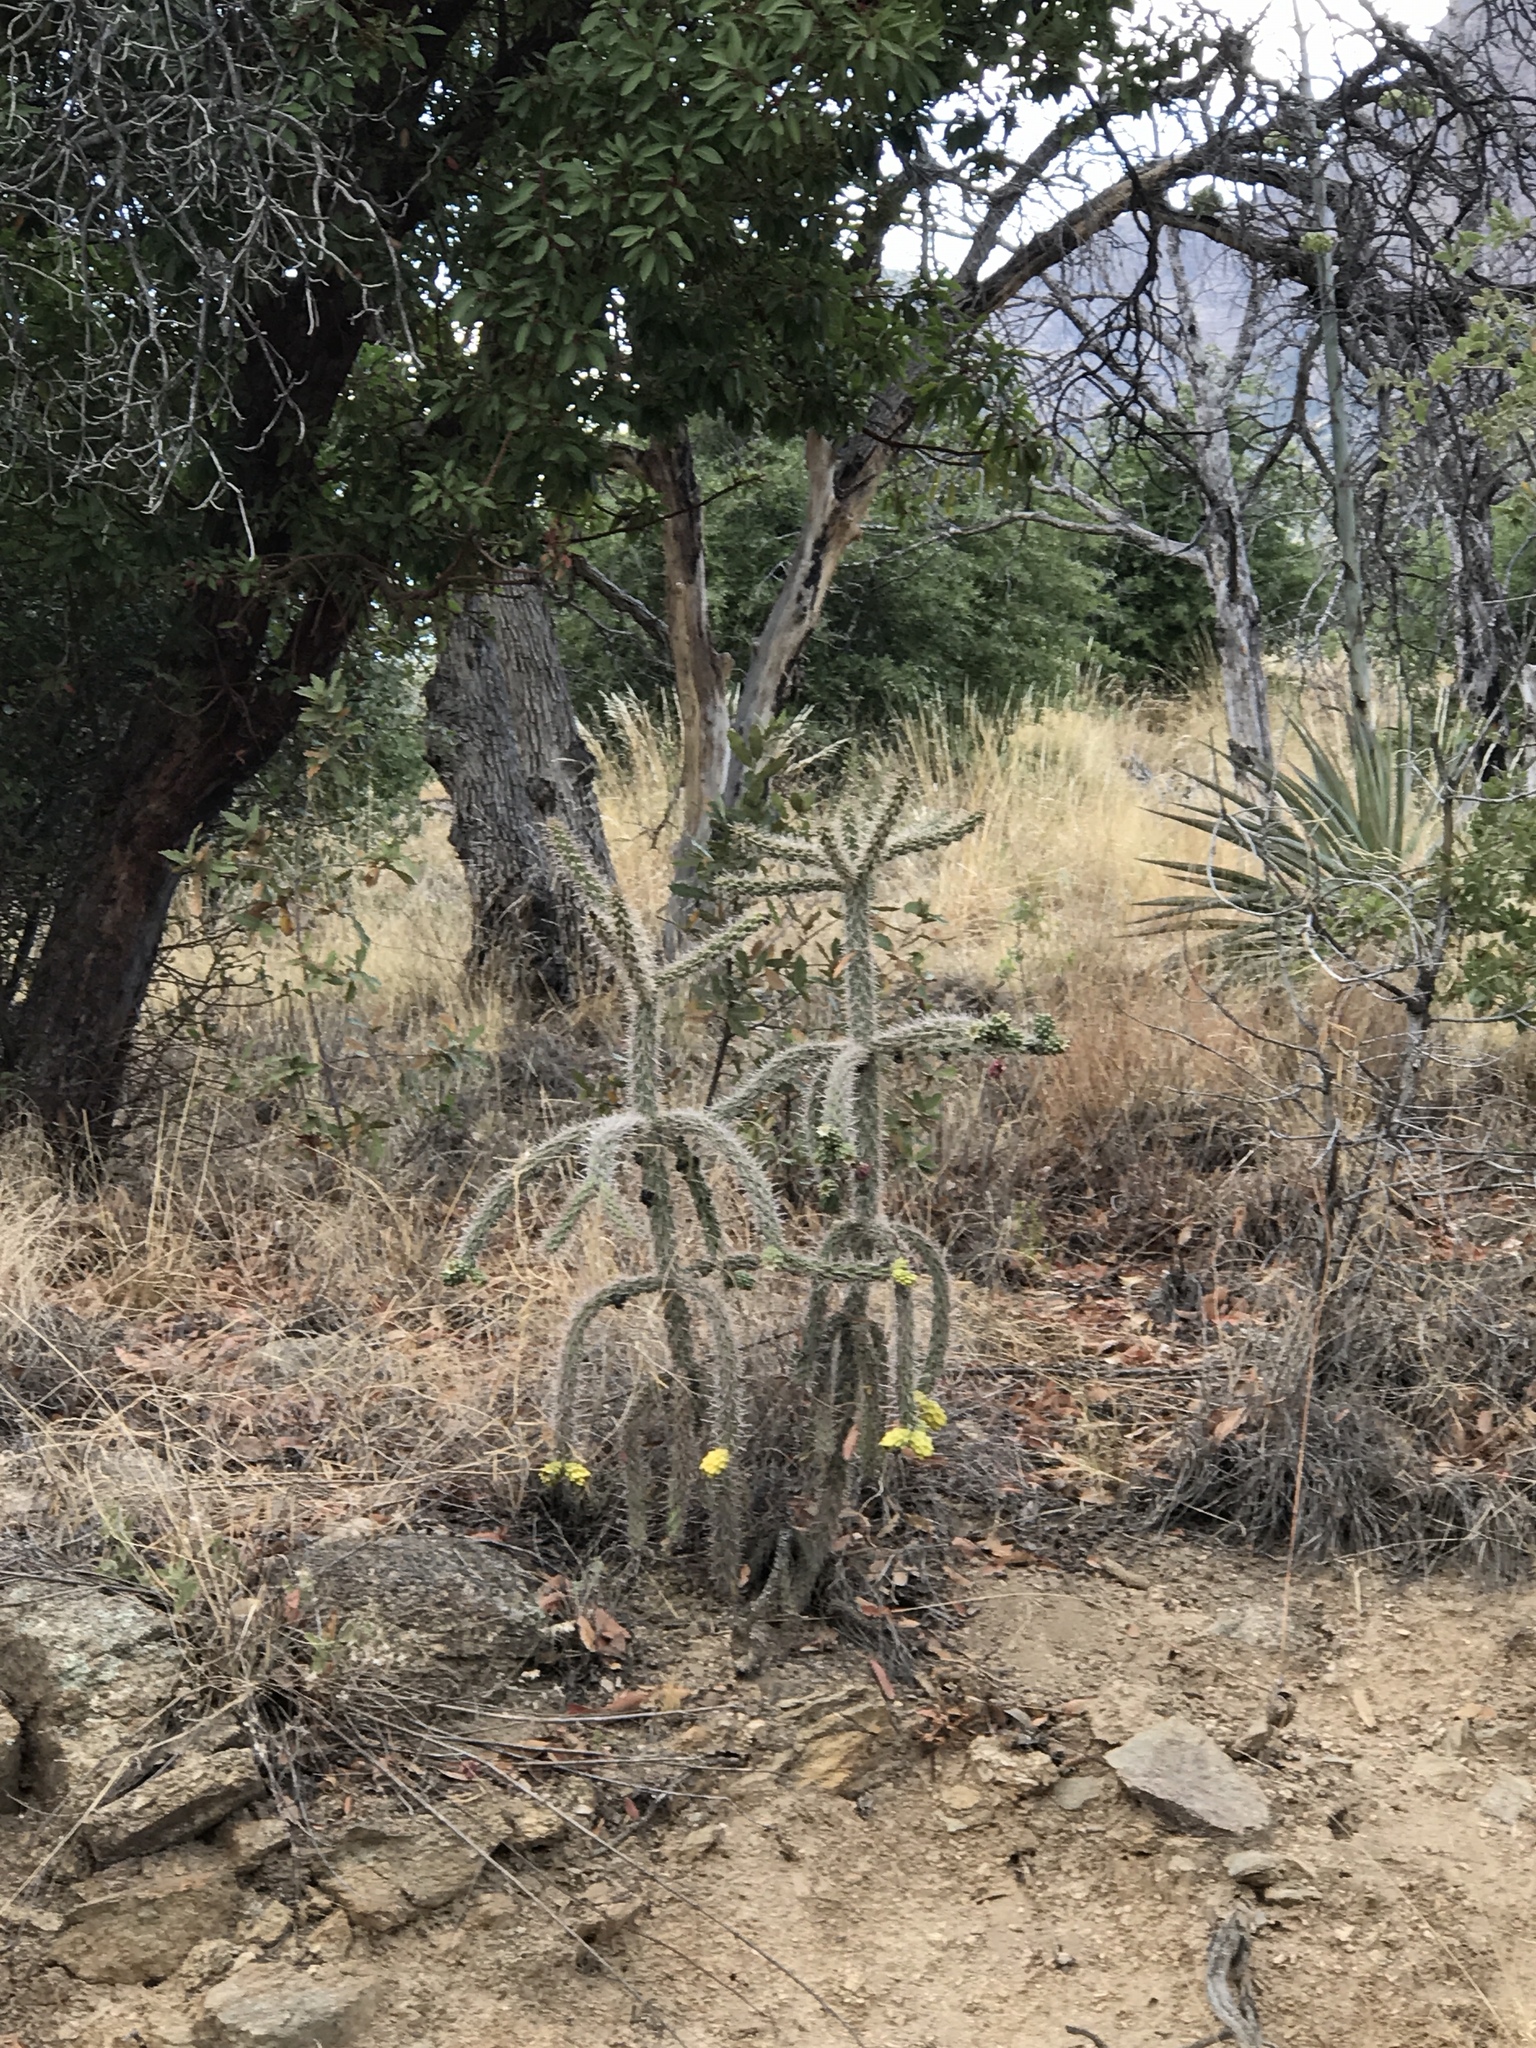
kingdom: Plantae
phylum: Tracheophyta
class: Magnoliopsida
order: Caryophyllales
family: Cactaceae
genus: Cylindropuntia
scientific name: Cylindropuntia imbricata
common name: Candelabrum cactus
